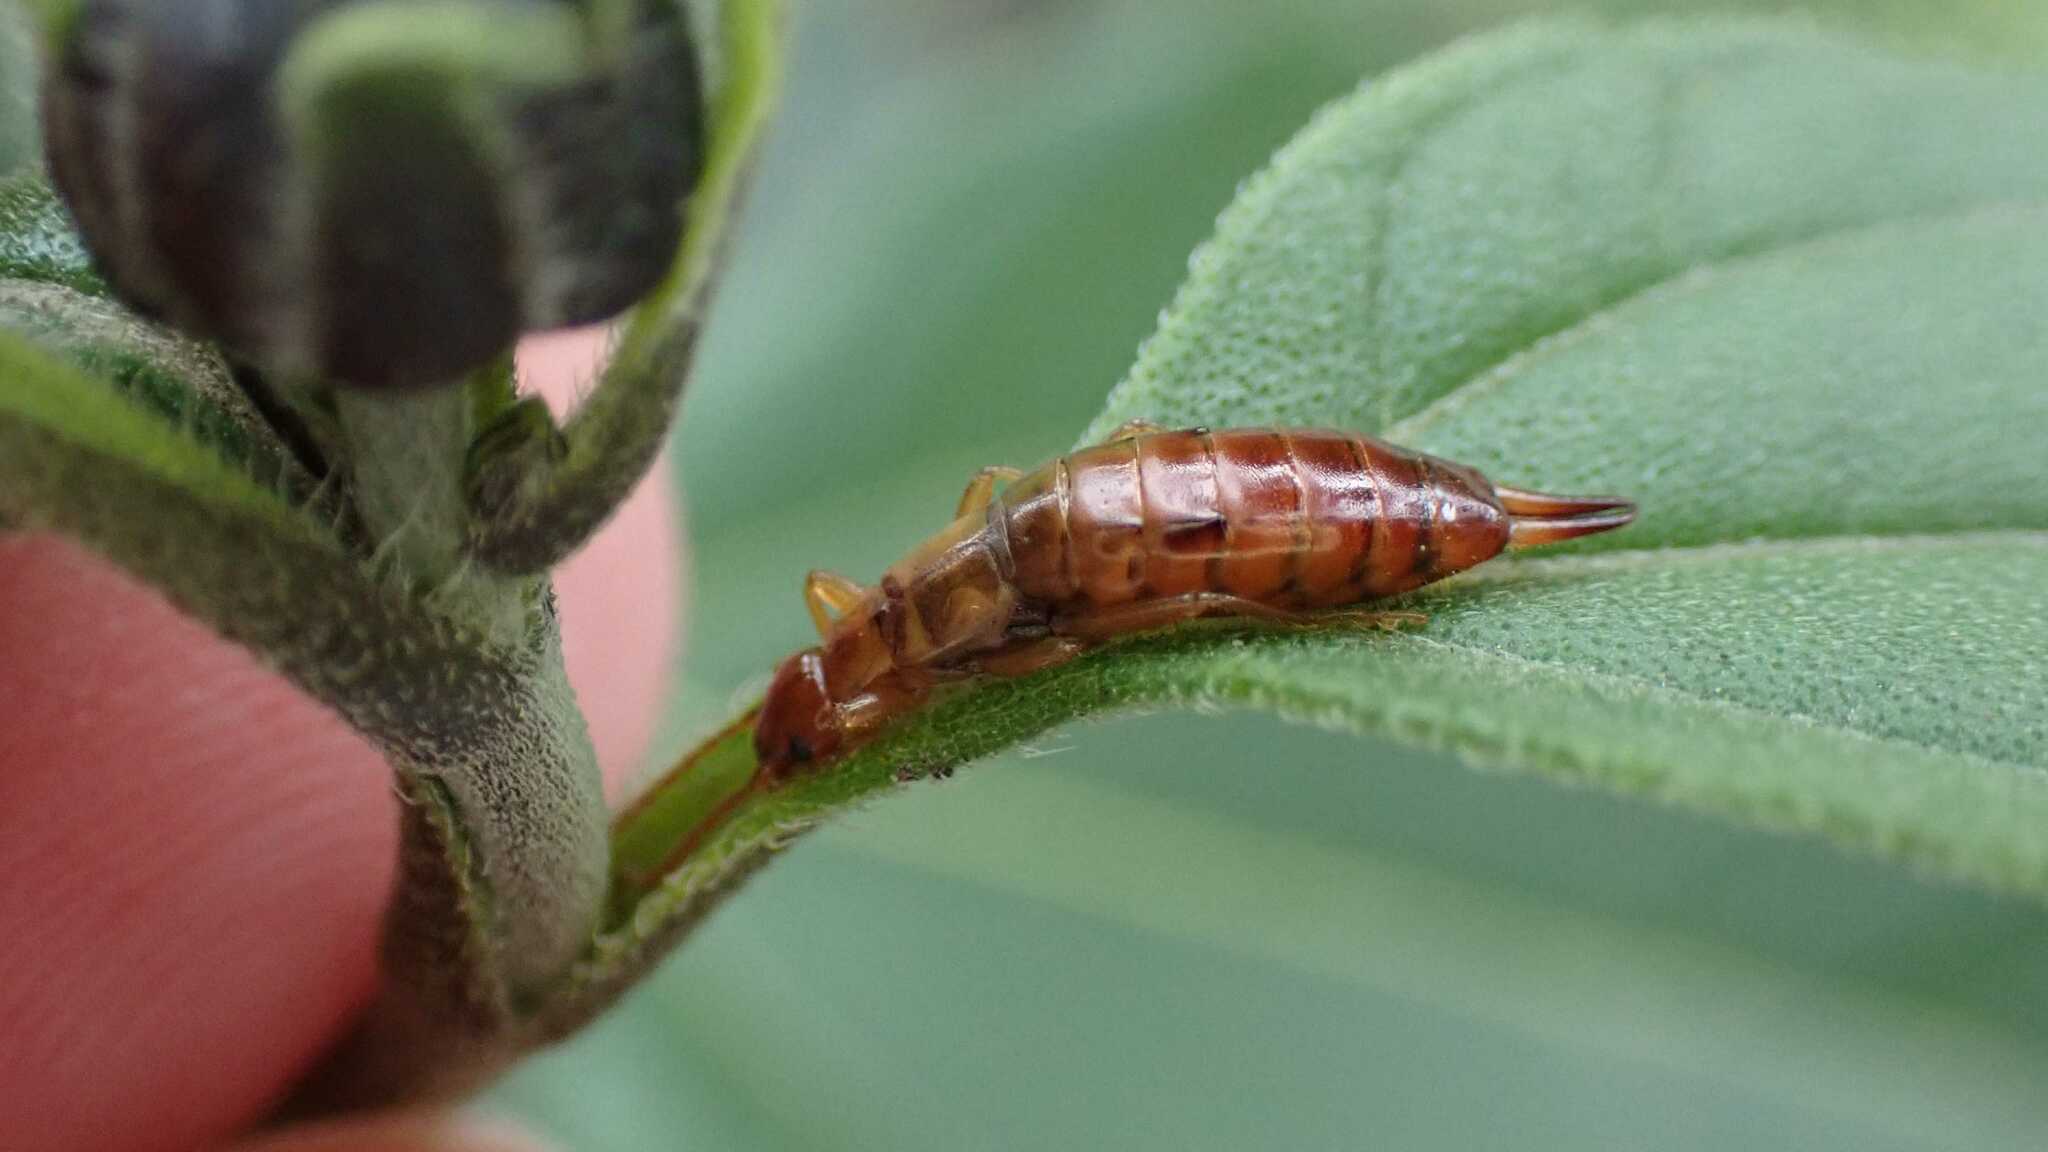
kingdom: Animalia
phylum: Arthropoda
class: Insecta
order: Dermaptera
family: Forficulidae
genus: Apterygida
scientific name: Apterygida albipennis
